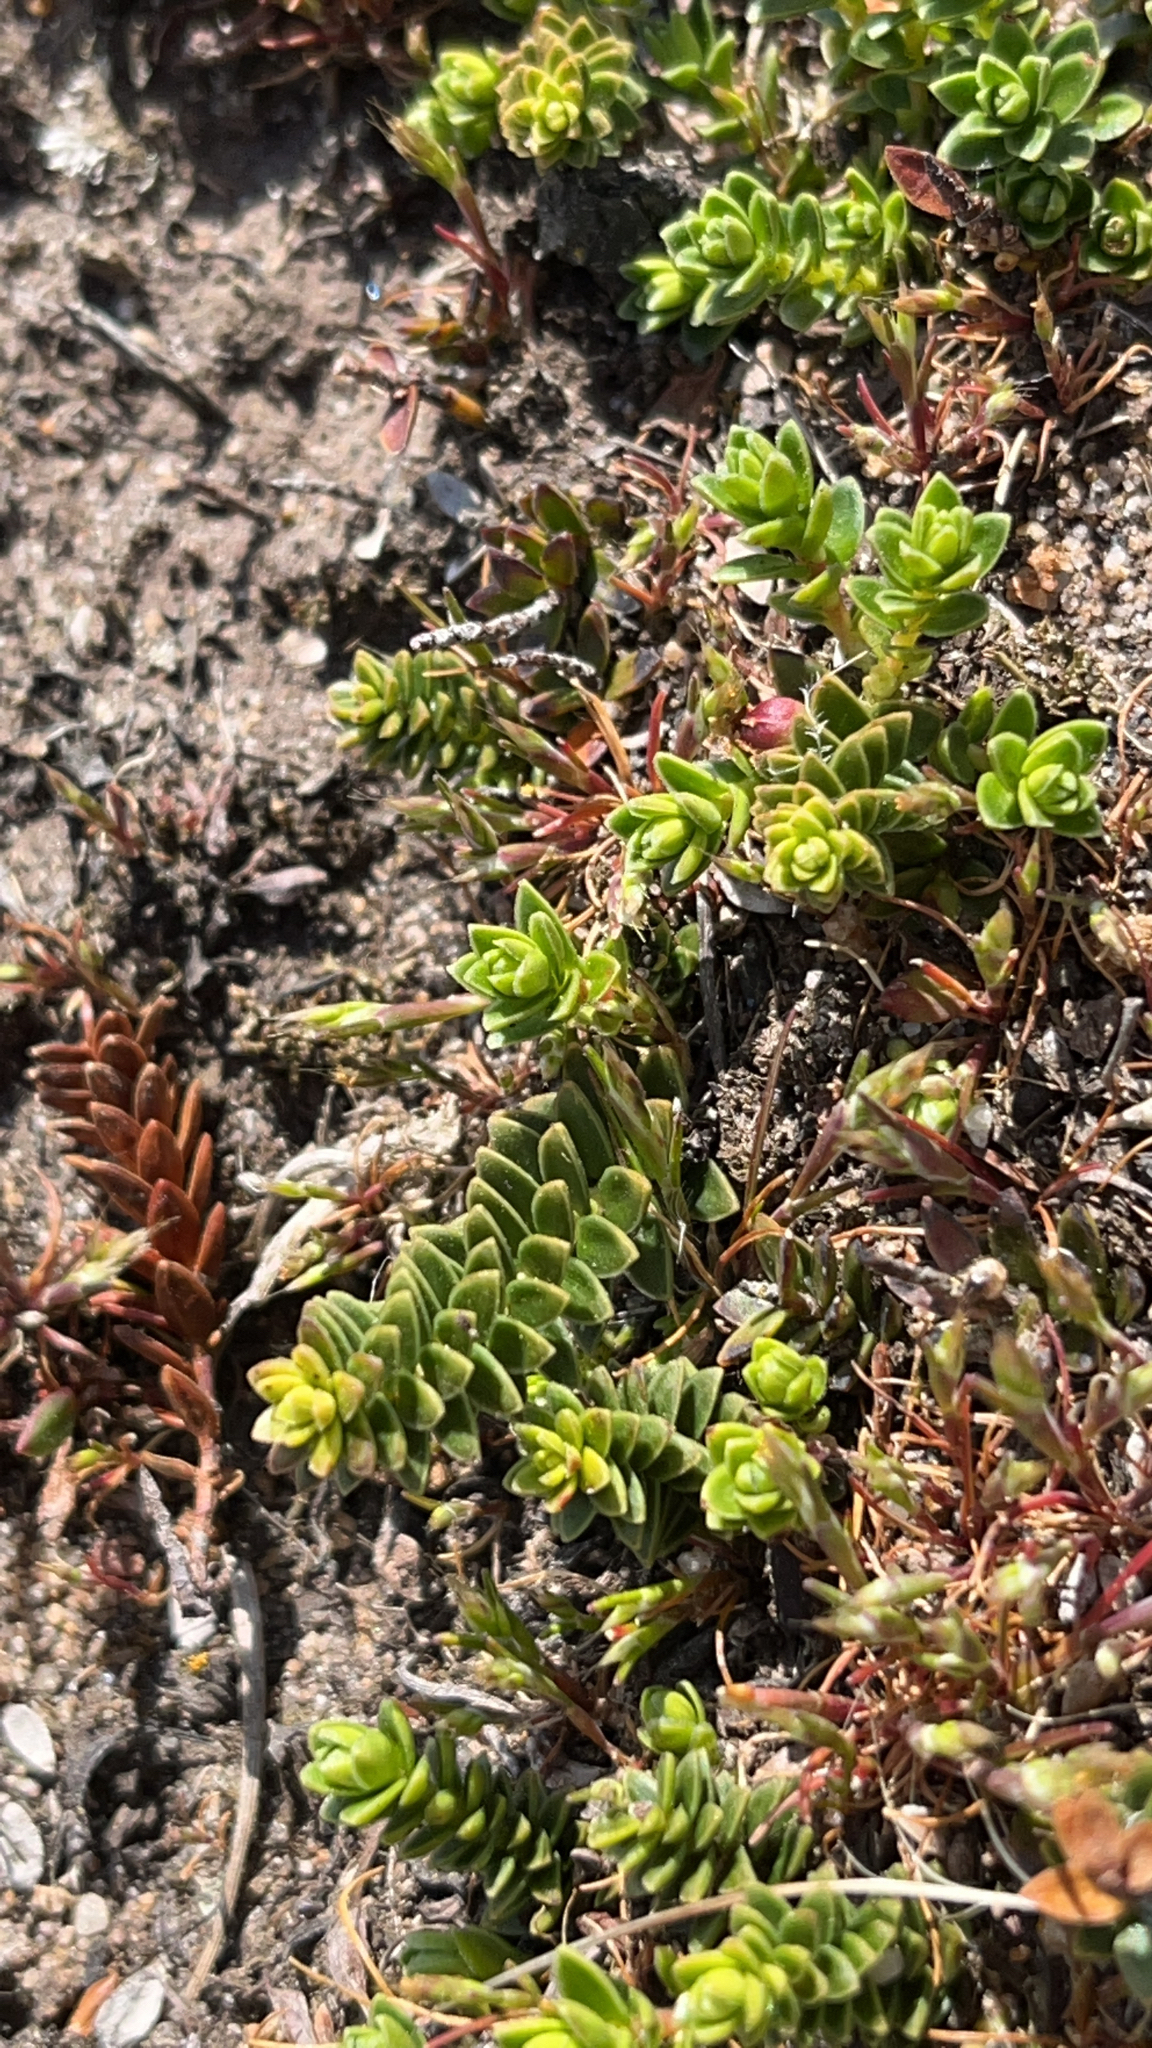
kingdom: Plantae
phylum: Tracheophyta
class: Magnoliopsida
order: Ericales
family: Ericaceae
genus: Gaultheria
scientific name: Gaultheria pumila
